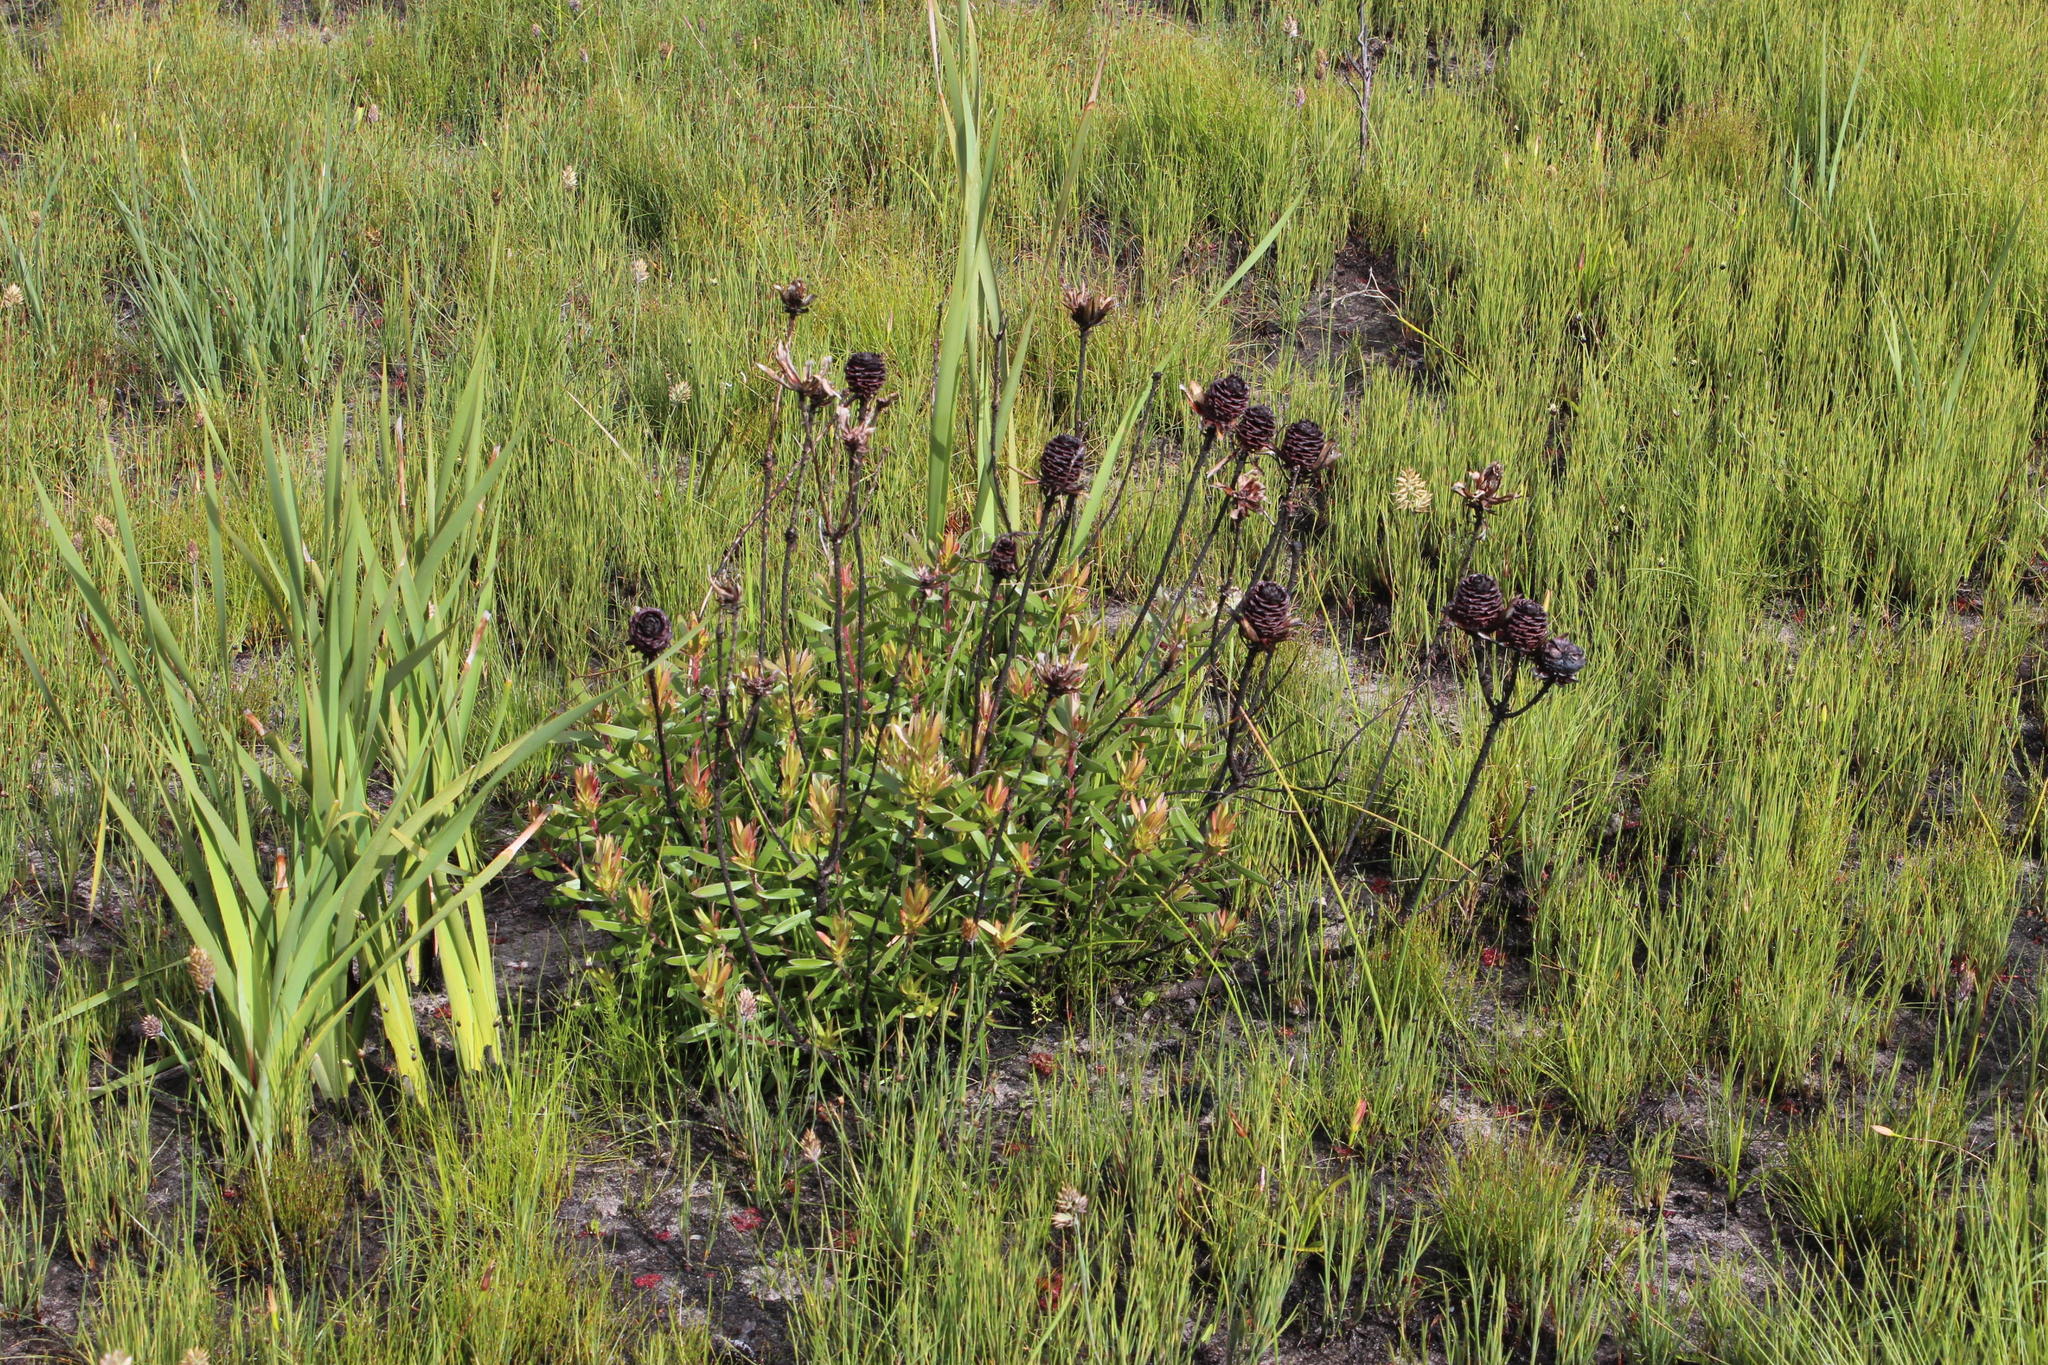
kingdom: Plantae
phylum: Tracheophyta
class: Magnoliopsida
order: Proteales
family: Proteaceae
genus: Leucadendron
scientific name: Leucadendron spissifolium
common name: Spear-leaf conebush
